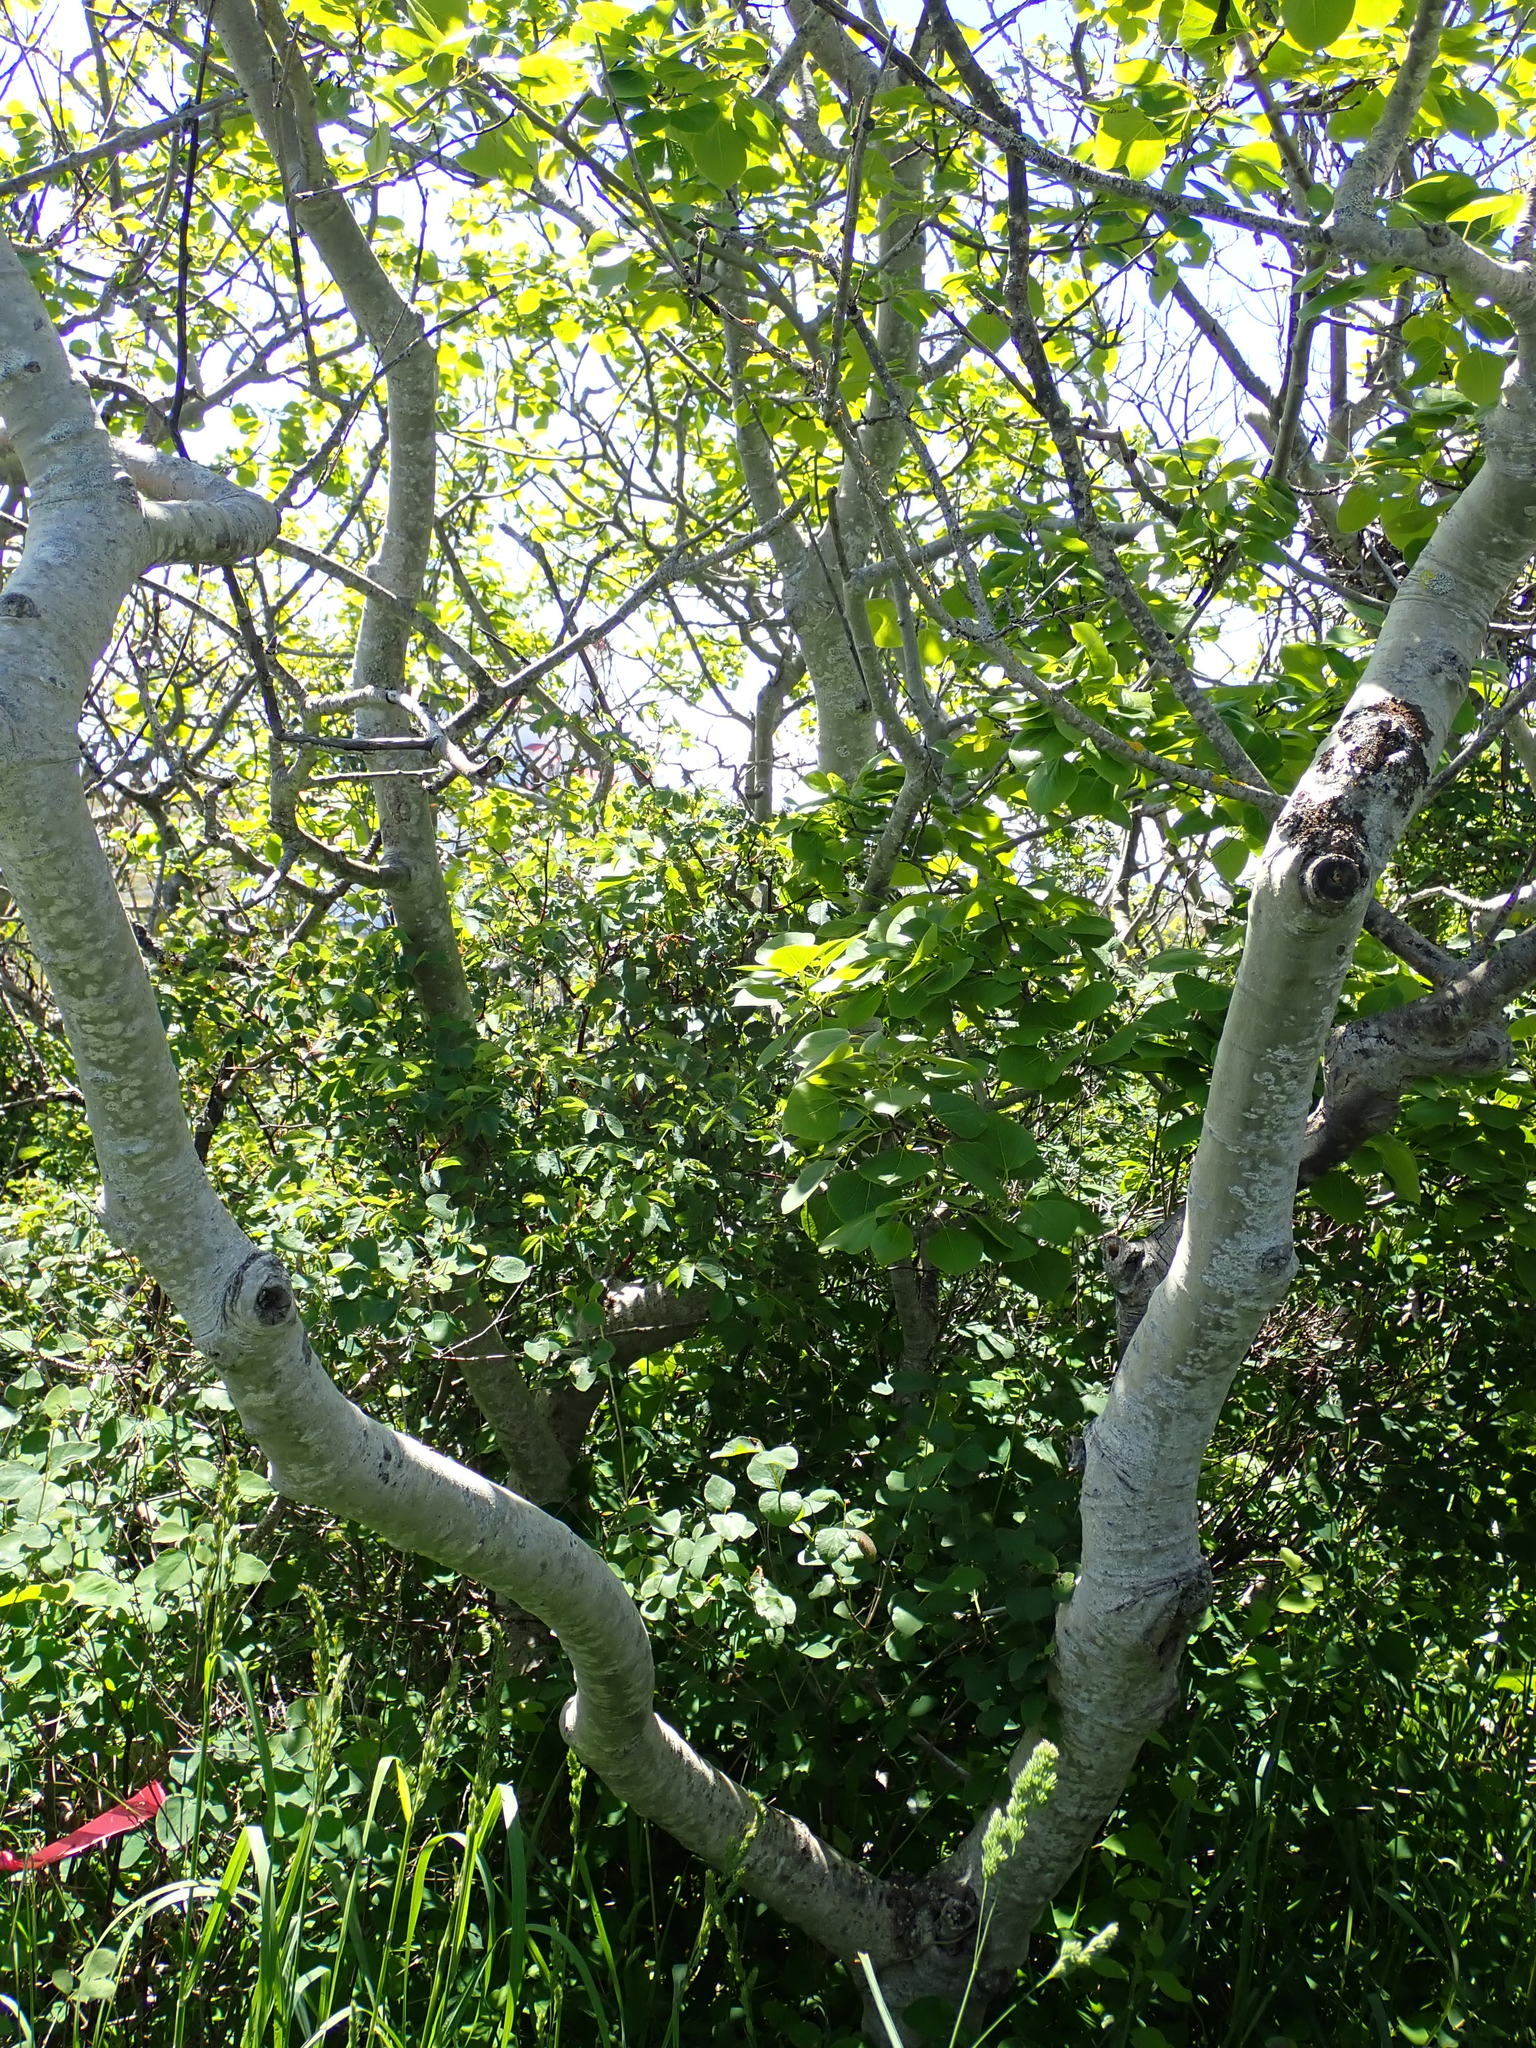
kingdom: Plantae
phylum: Tracheophyta
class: Magnoliopsida
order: Malpighiales
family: Salicaceae
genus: Populus
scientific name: Populus tremuloides
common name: Quaking aspen
